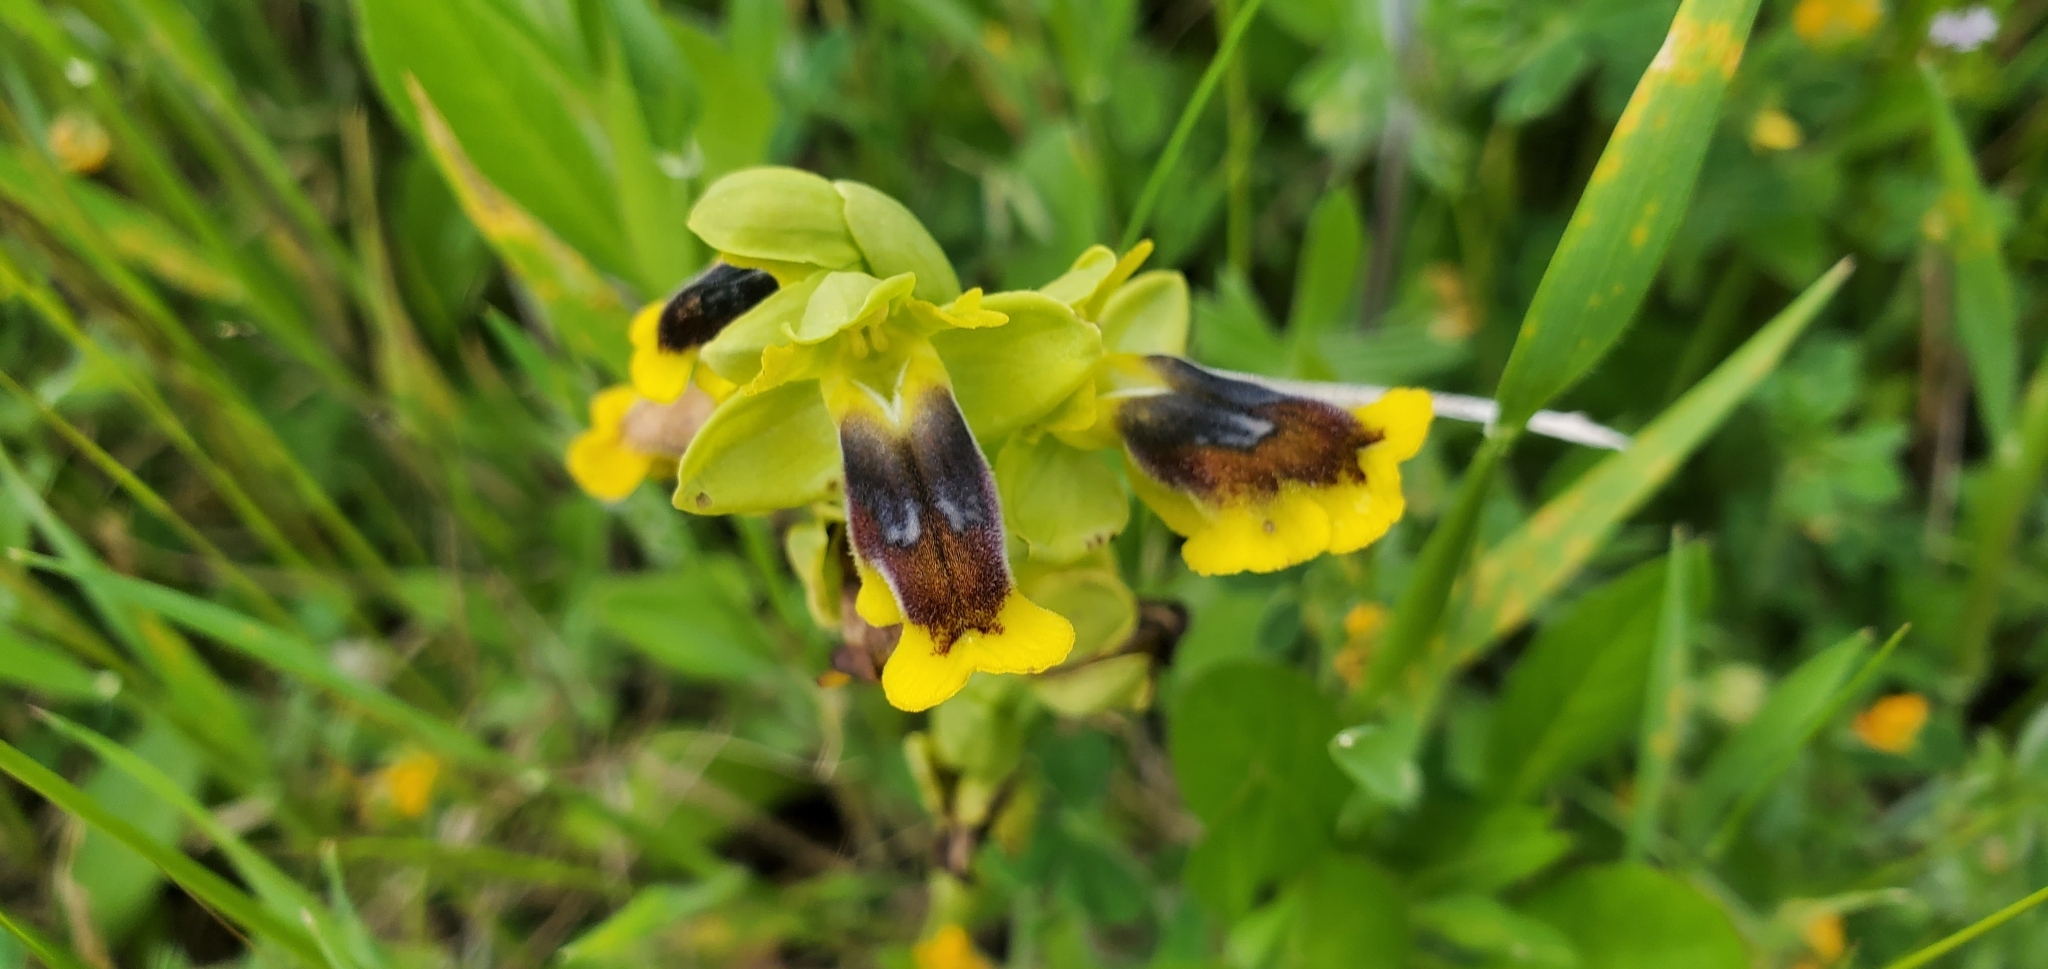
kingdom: Plantae
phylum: Tracheophyta
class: Liliopsida
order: Asparagales
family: Orchidaceae
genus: Ophrys
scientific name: Ophrys lutea
